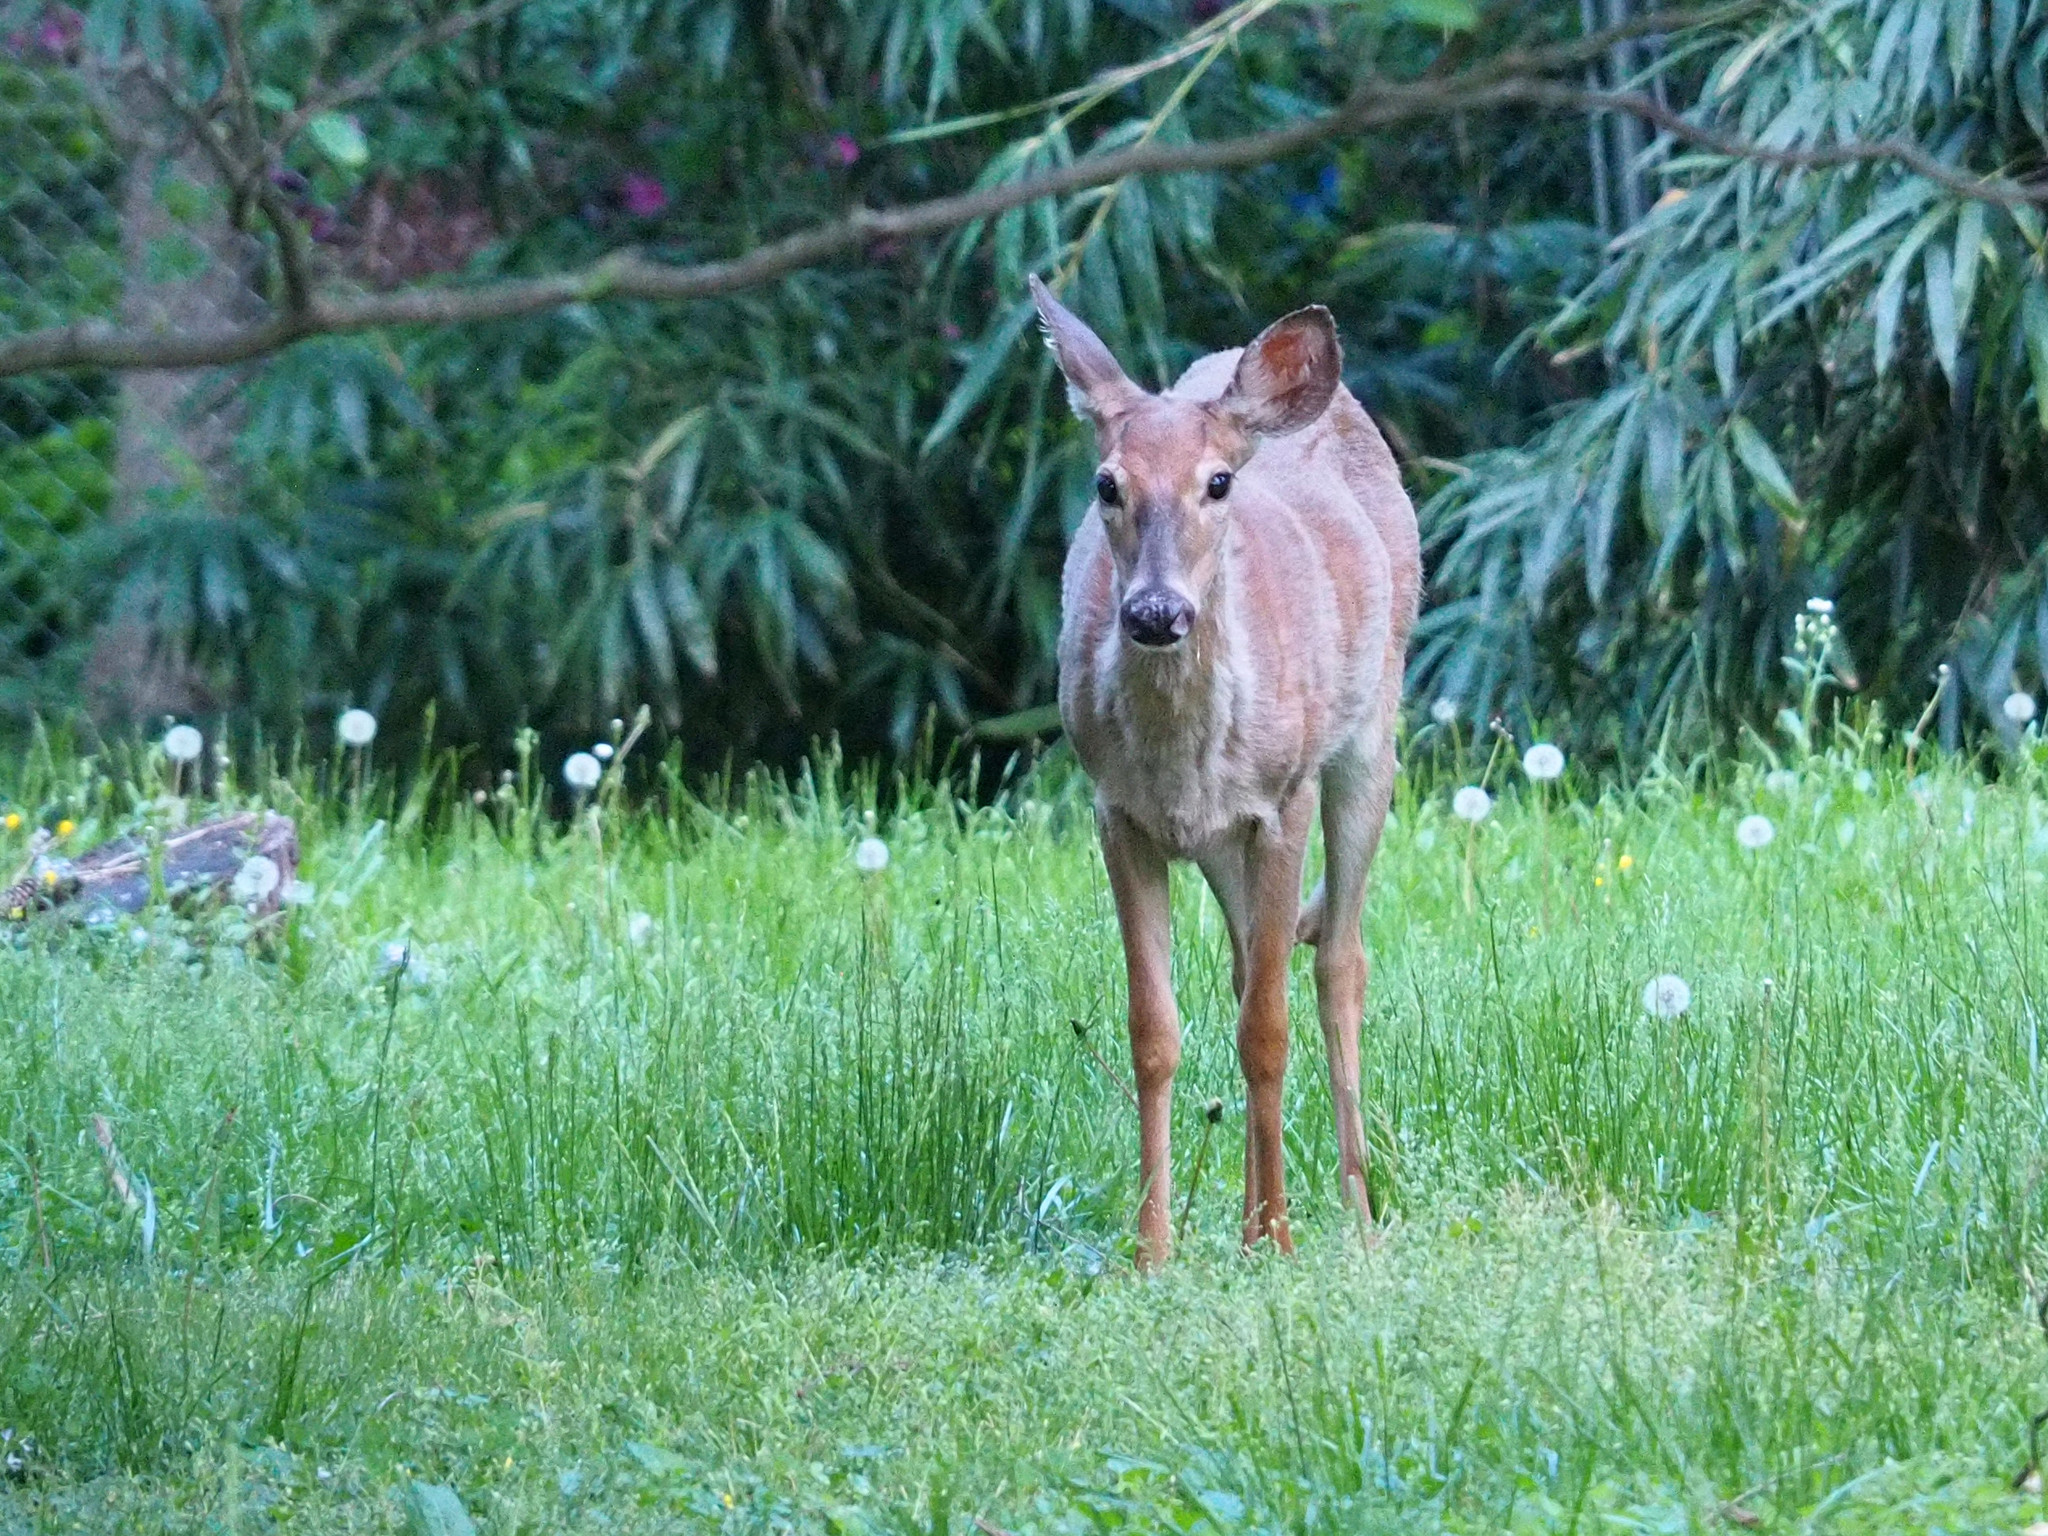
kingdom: Animalia
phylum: Chordata
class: Mammalia
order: Artiodactyla
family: Cervidae
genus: Odocoileus
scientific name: Odocoileus virginianus
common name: White-tailed deer
